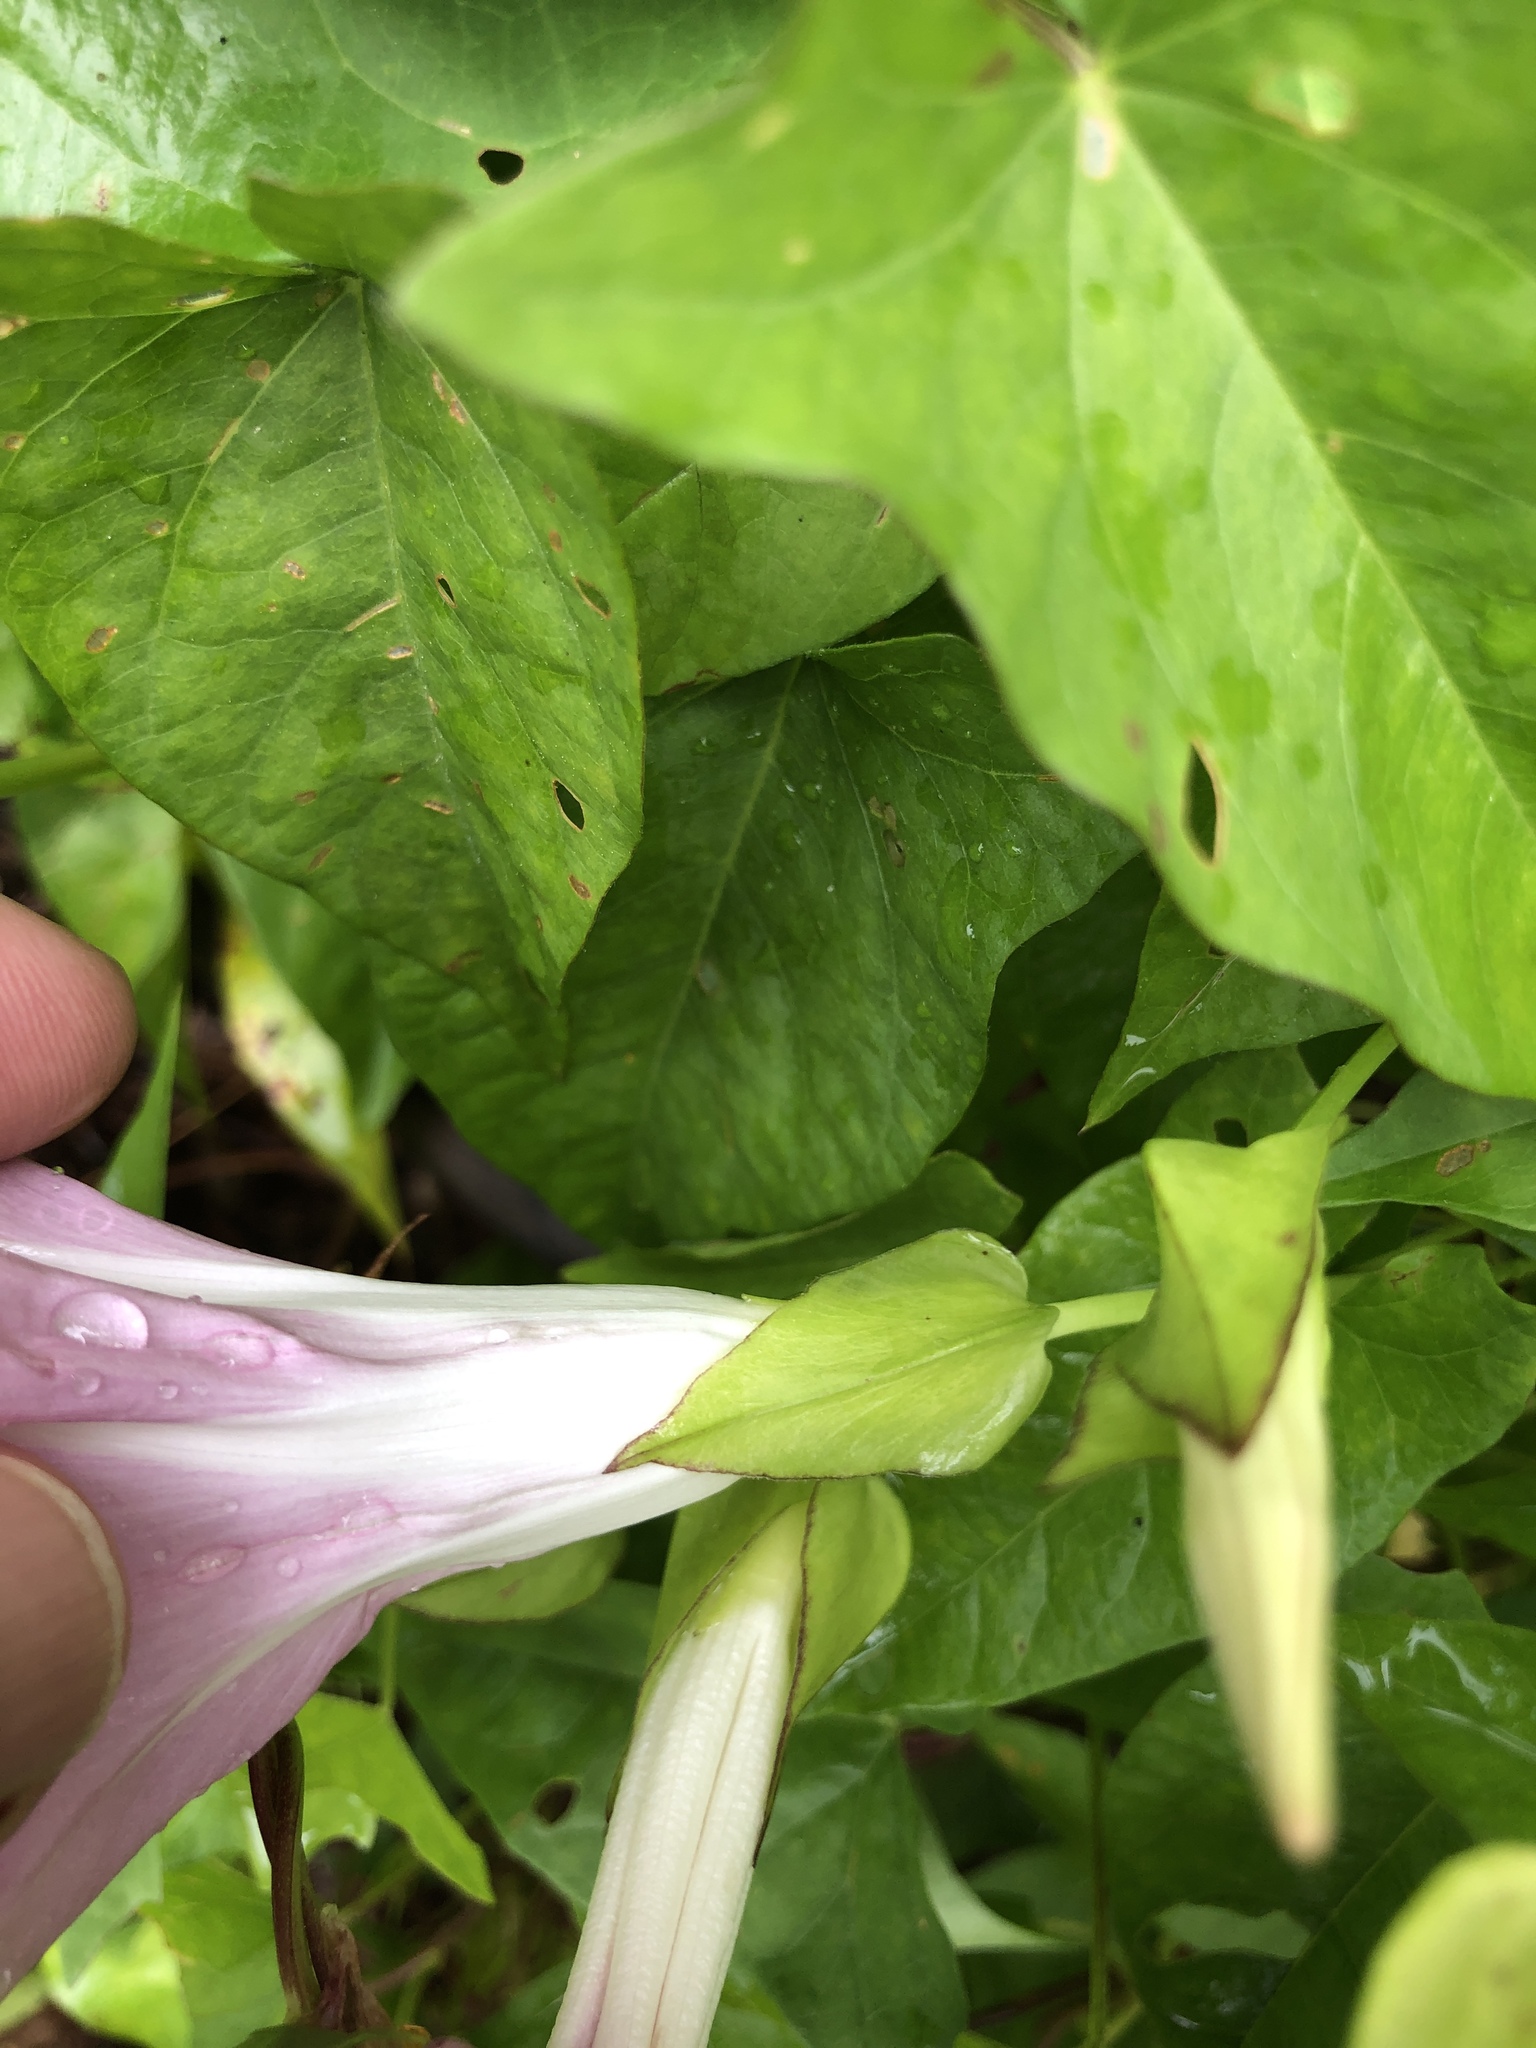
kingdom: Plantae
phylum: Tracheophyta
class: Magnoliopsida
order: Solanales
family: Convolvulaceae
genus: Calystegia
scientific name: Calystegia sepium
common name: Hedge bindweed
